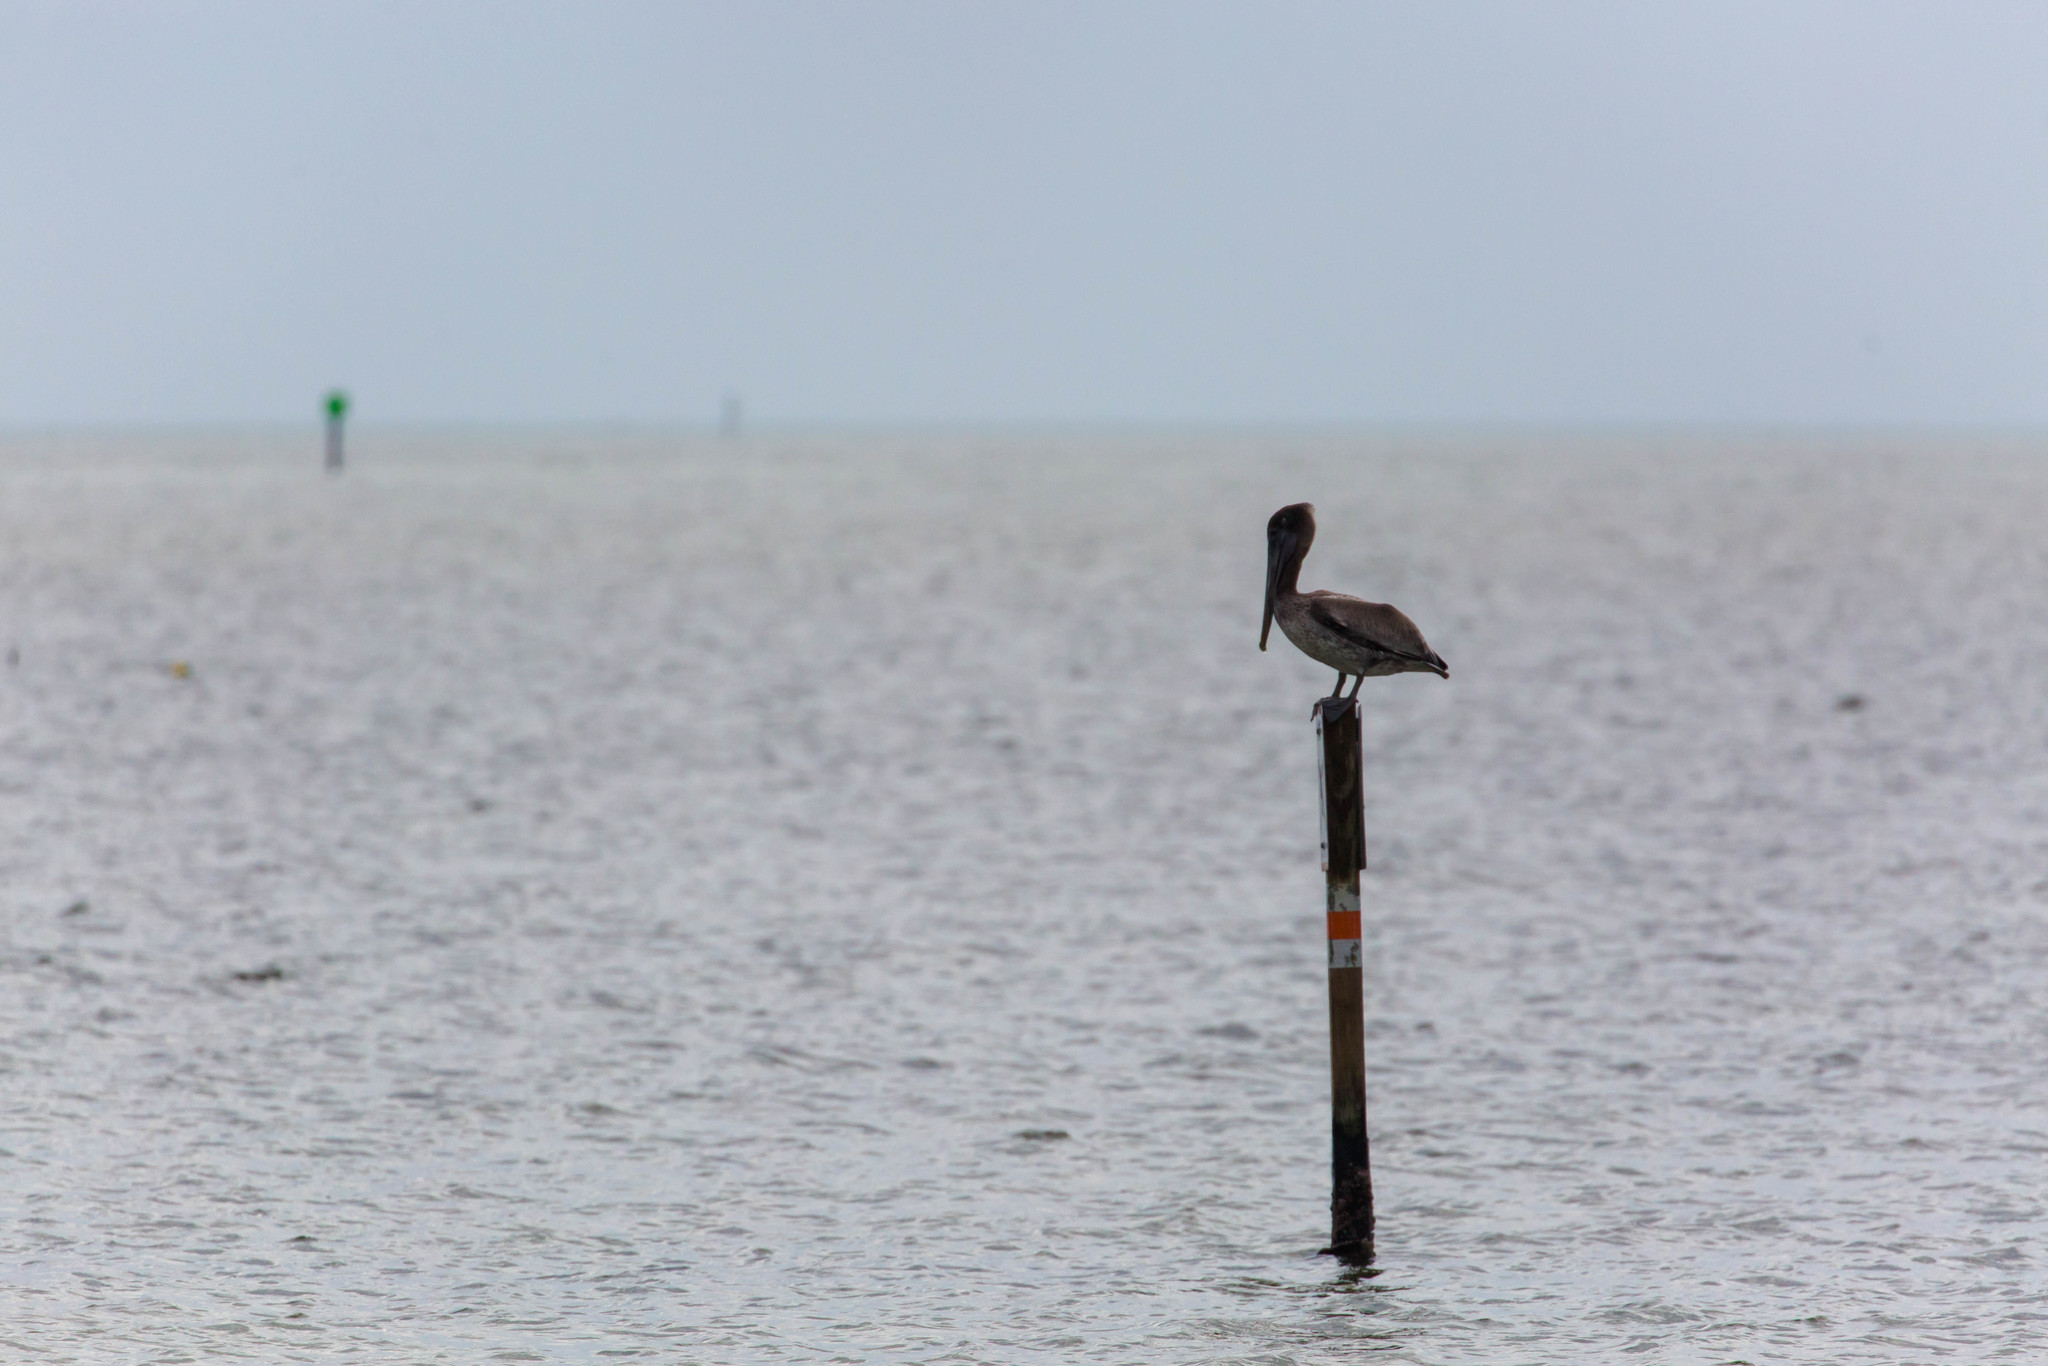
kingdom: Animalia
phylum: Chordata
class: Aves
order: Pelecaniformes
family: Pelecanidae
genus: Pelecanus
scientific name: Pelecanus occidentalis
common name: Brown pelican
